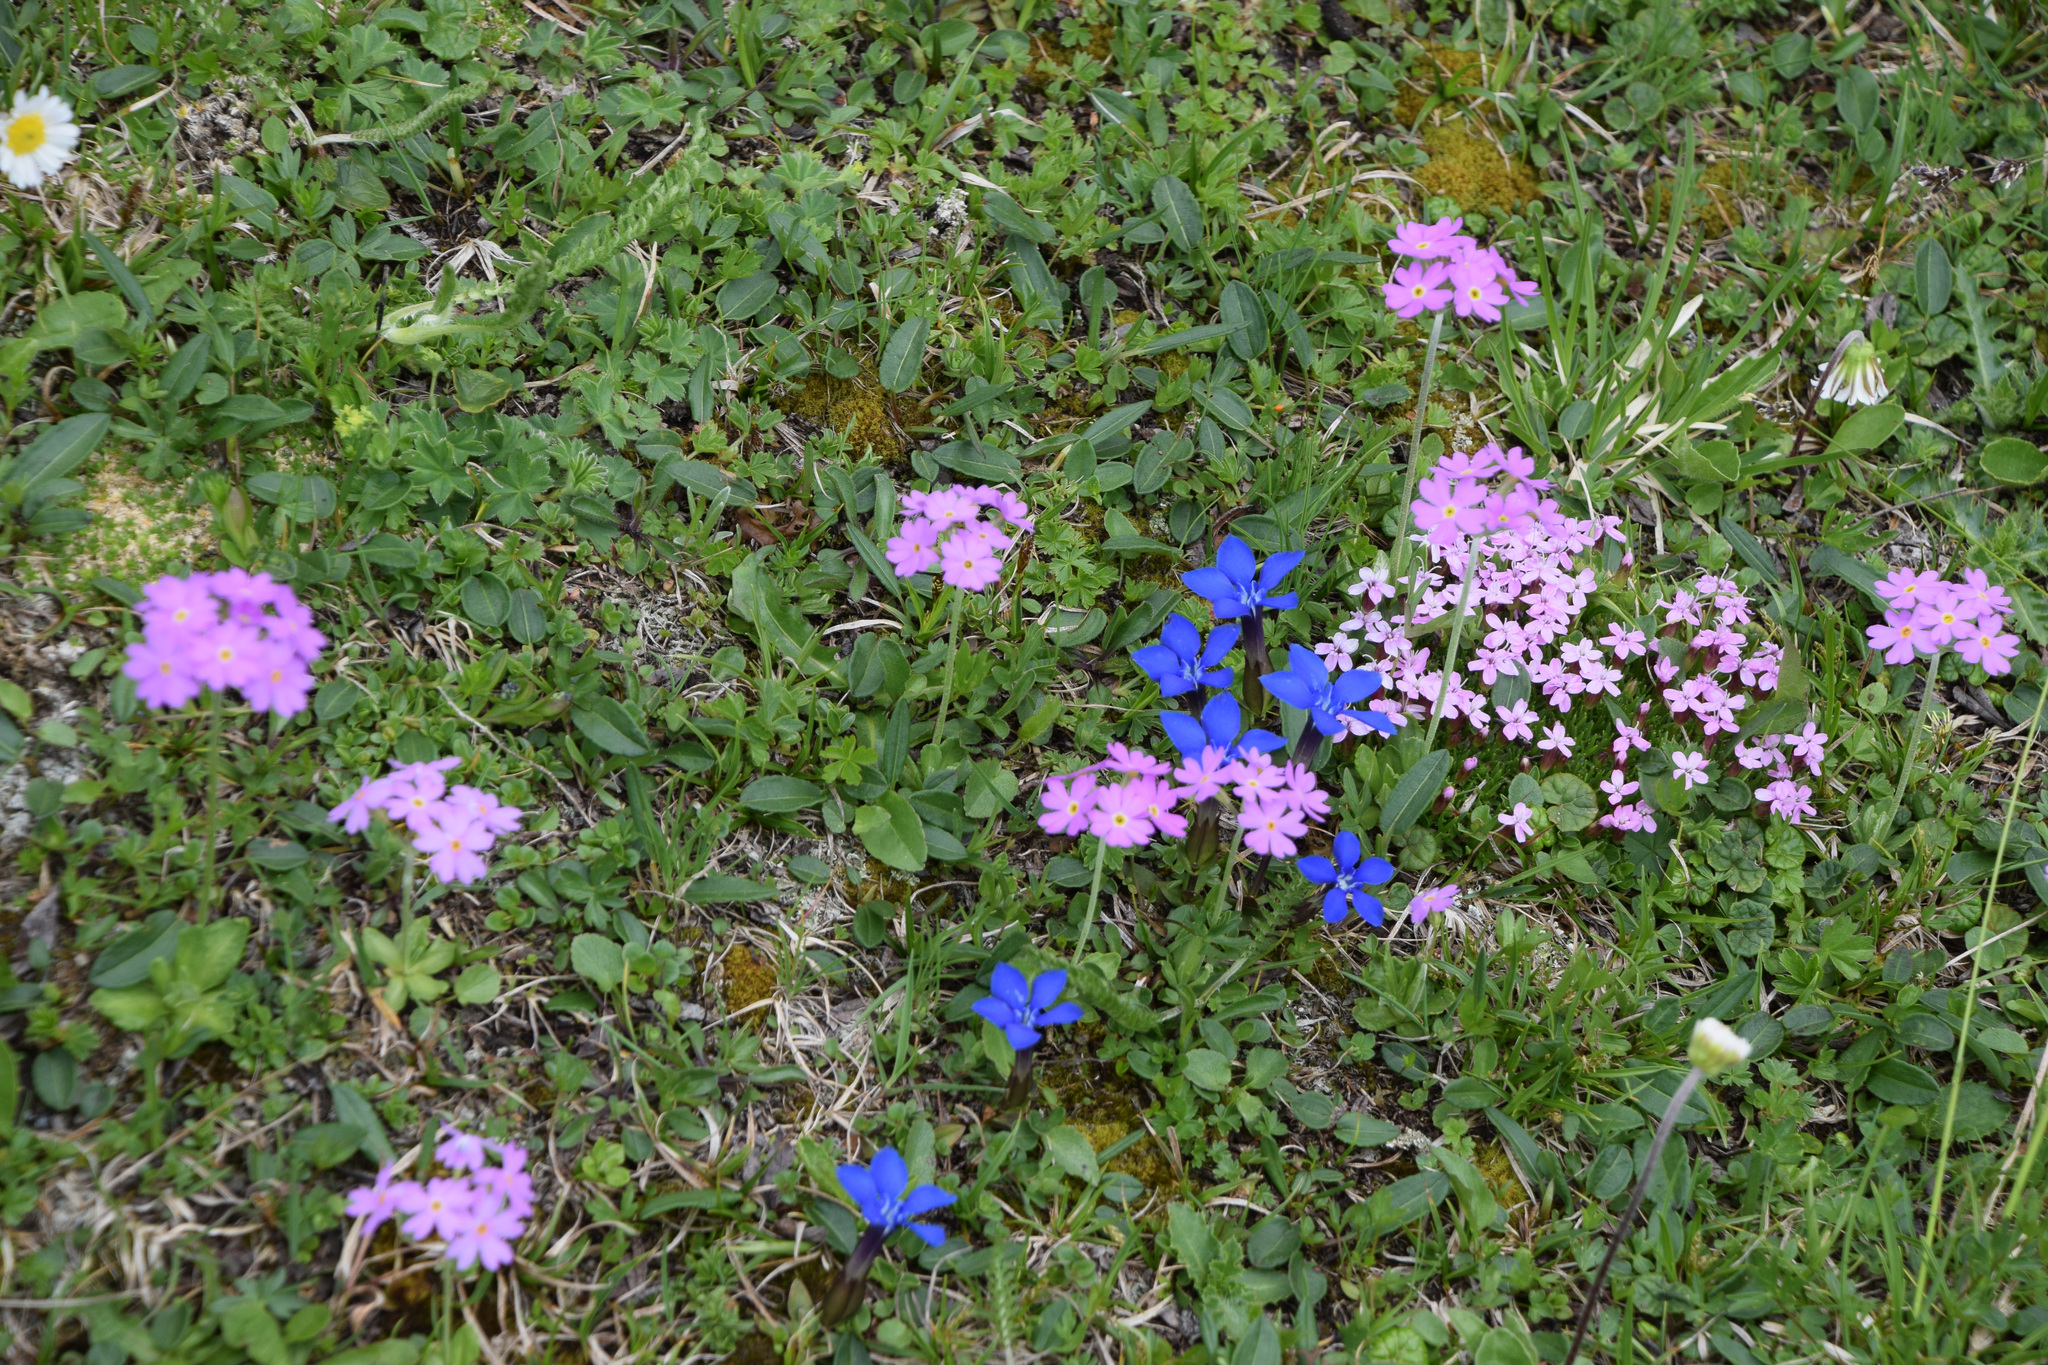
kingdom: Plantae
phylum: Tracheophyta
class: Magnoliopsida
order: Gentianales
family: Gentianaceae
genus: Gentiana
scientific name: Gentiana verna
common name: Spring gentian
